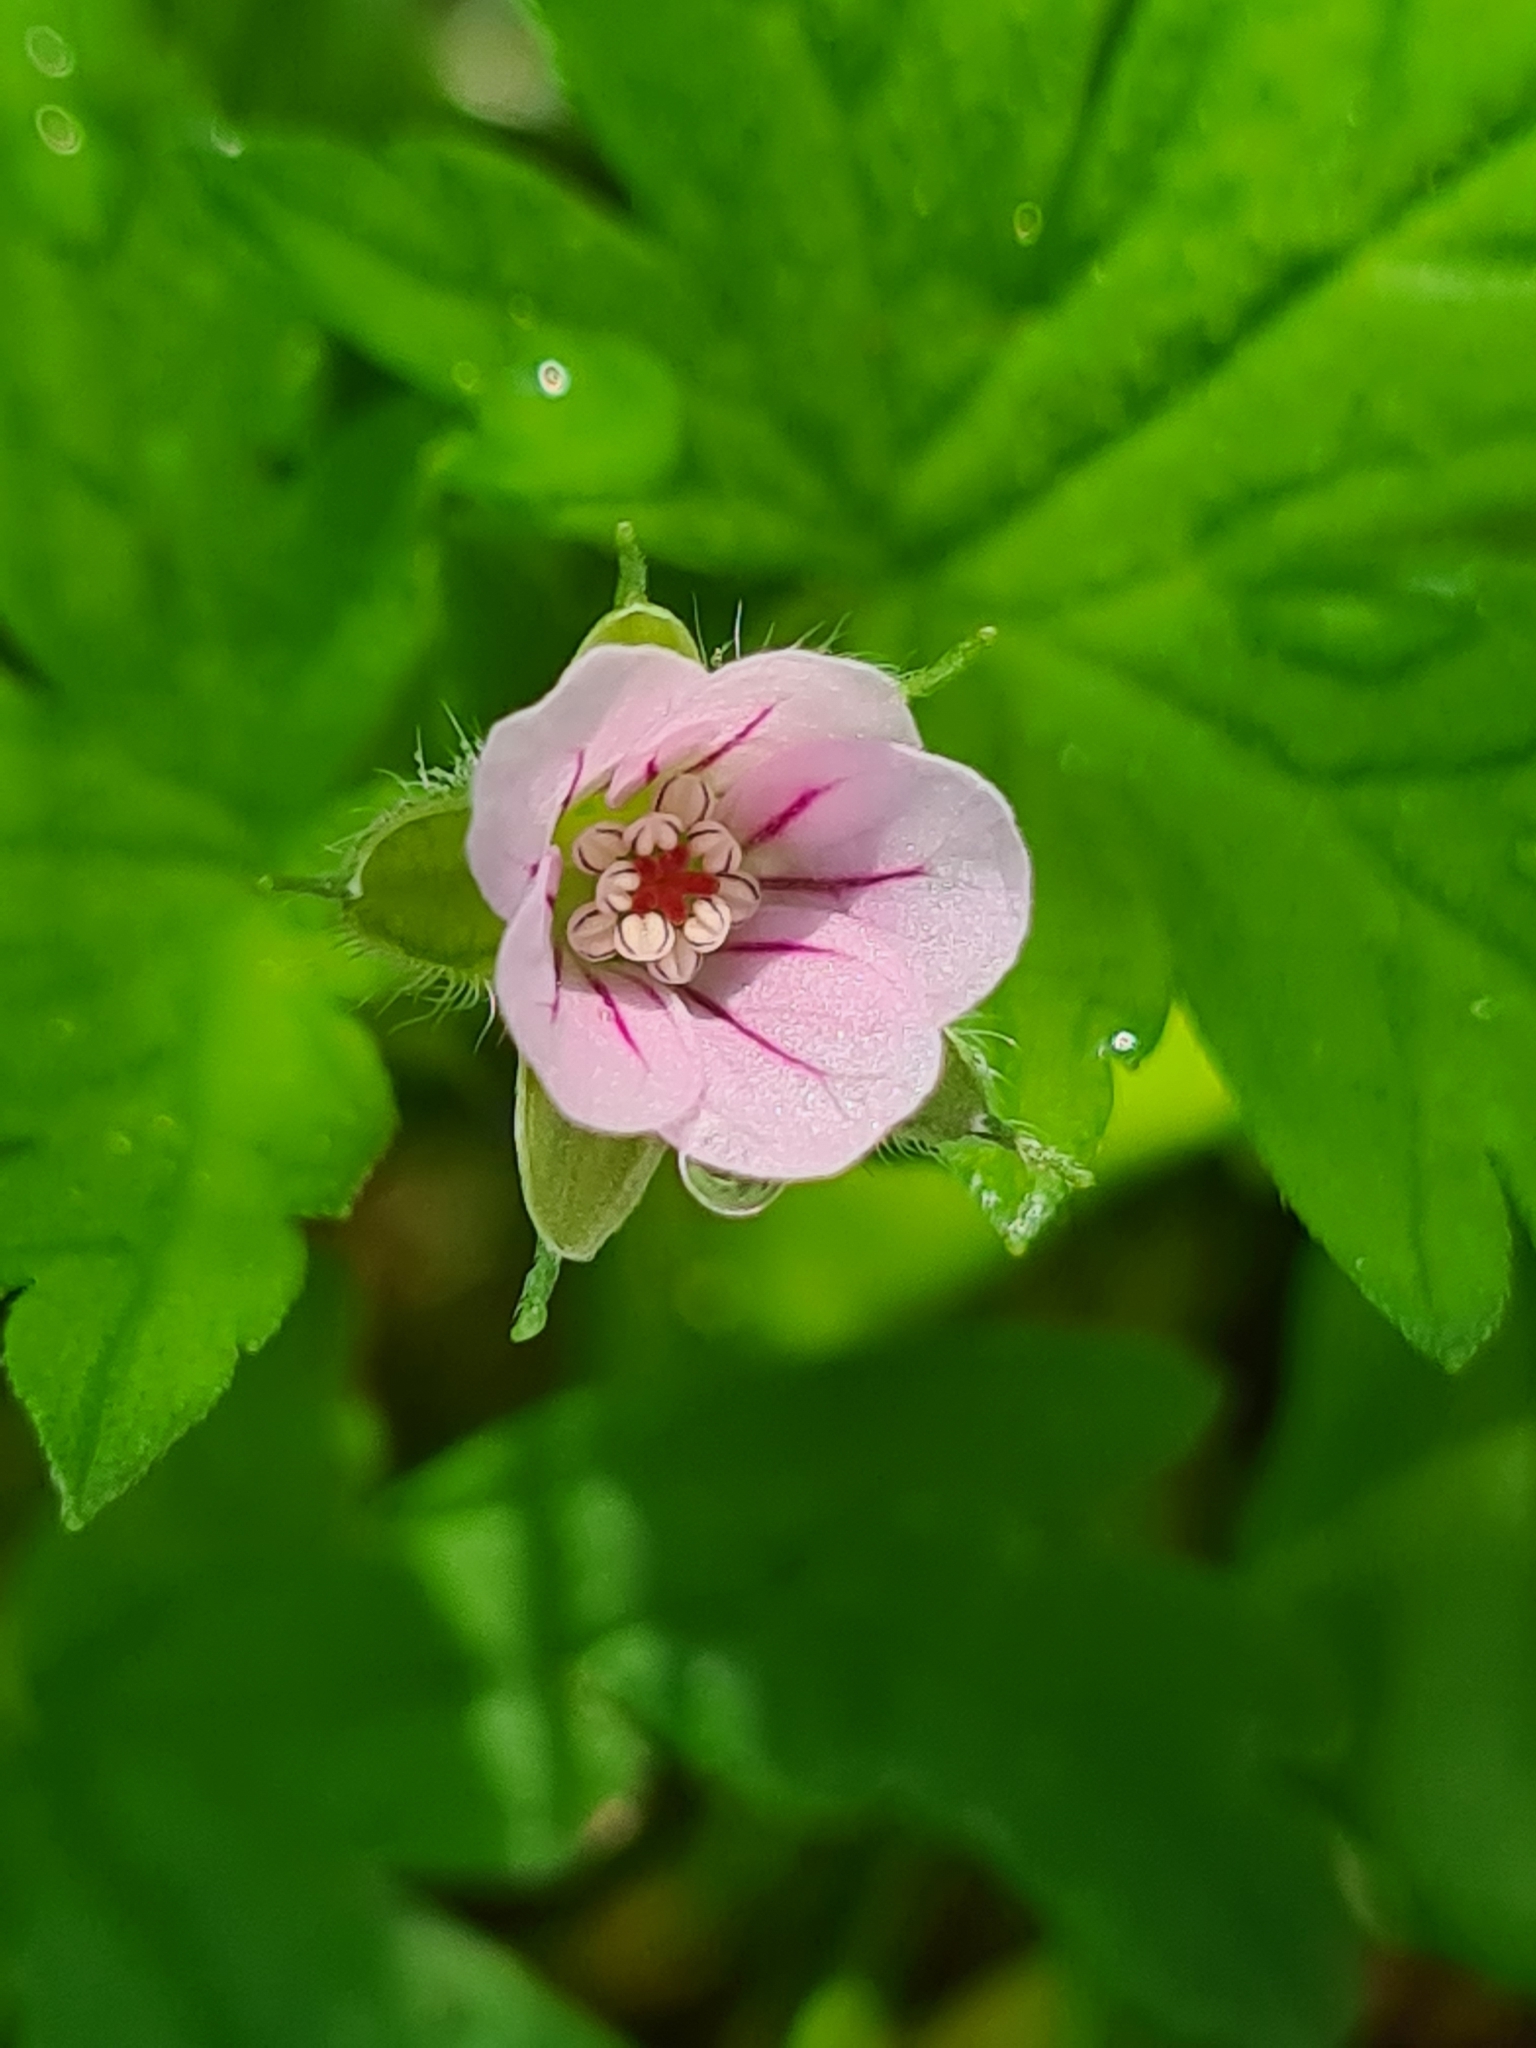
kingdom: Plantae
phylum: Tracheophyta
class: Magnoliopsida
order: Geraniales
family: Geraniaceae
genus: Geranium
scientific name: Geranium sibiricum
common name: Siberian crane's-bill
